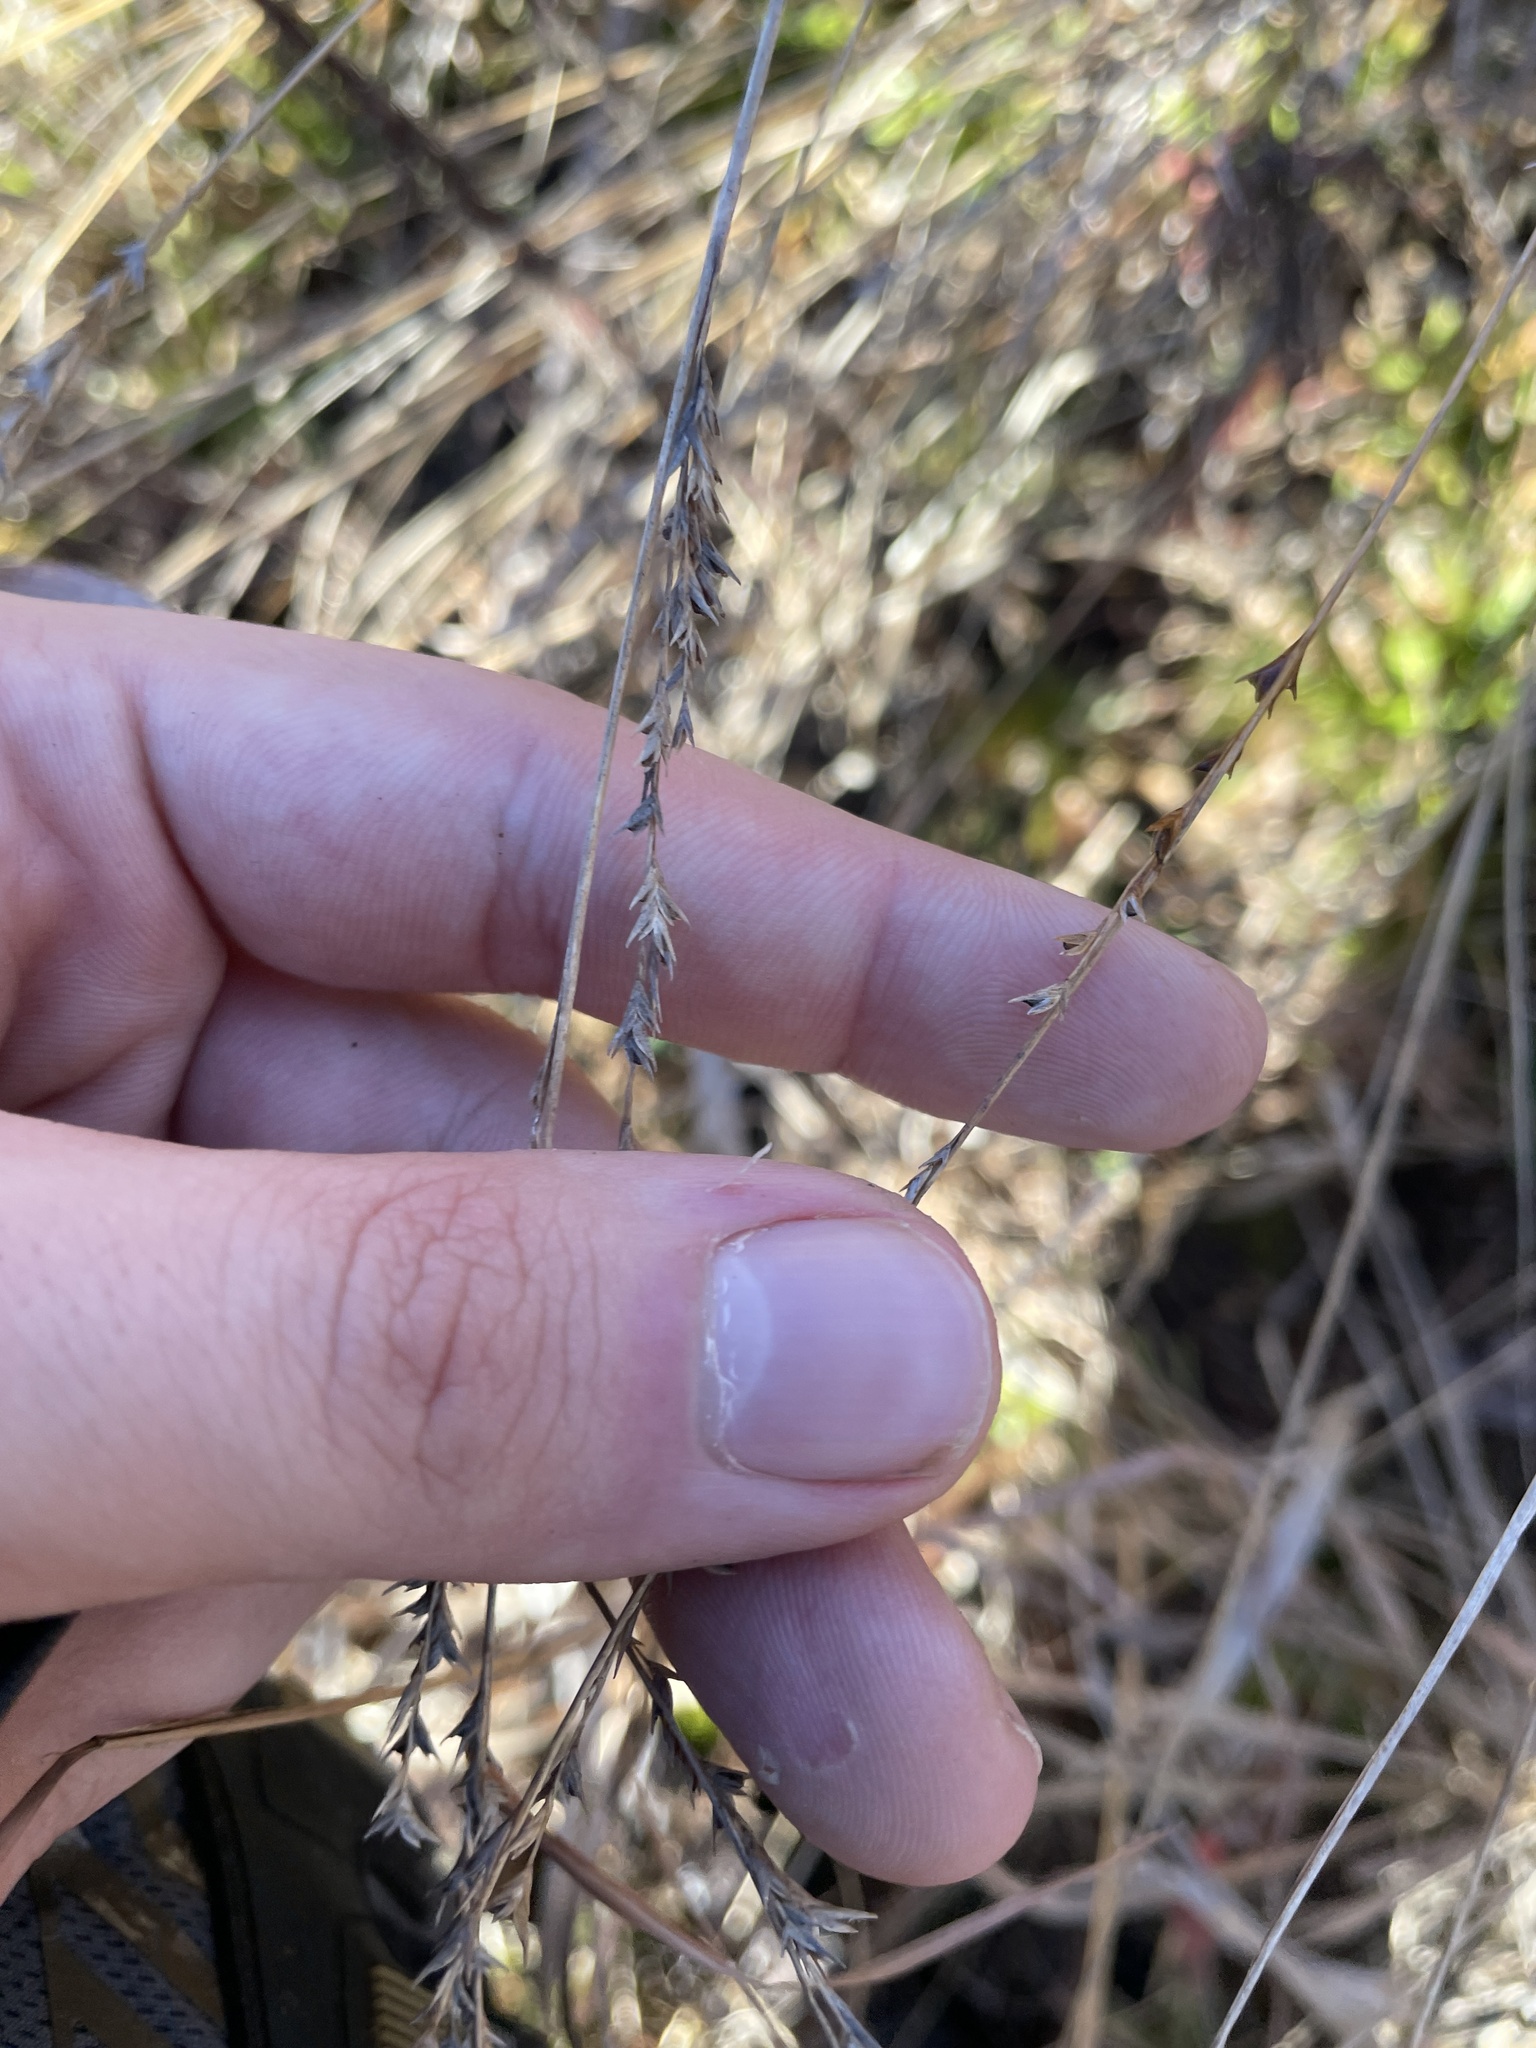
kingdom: Plantae
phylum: Tracheophyta
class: Liliopsida
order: Poales
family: Poaceae
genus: Chasmanthium
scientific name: Chasmanthium laxum
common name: Slender chasmanthium
